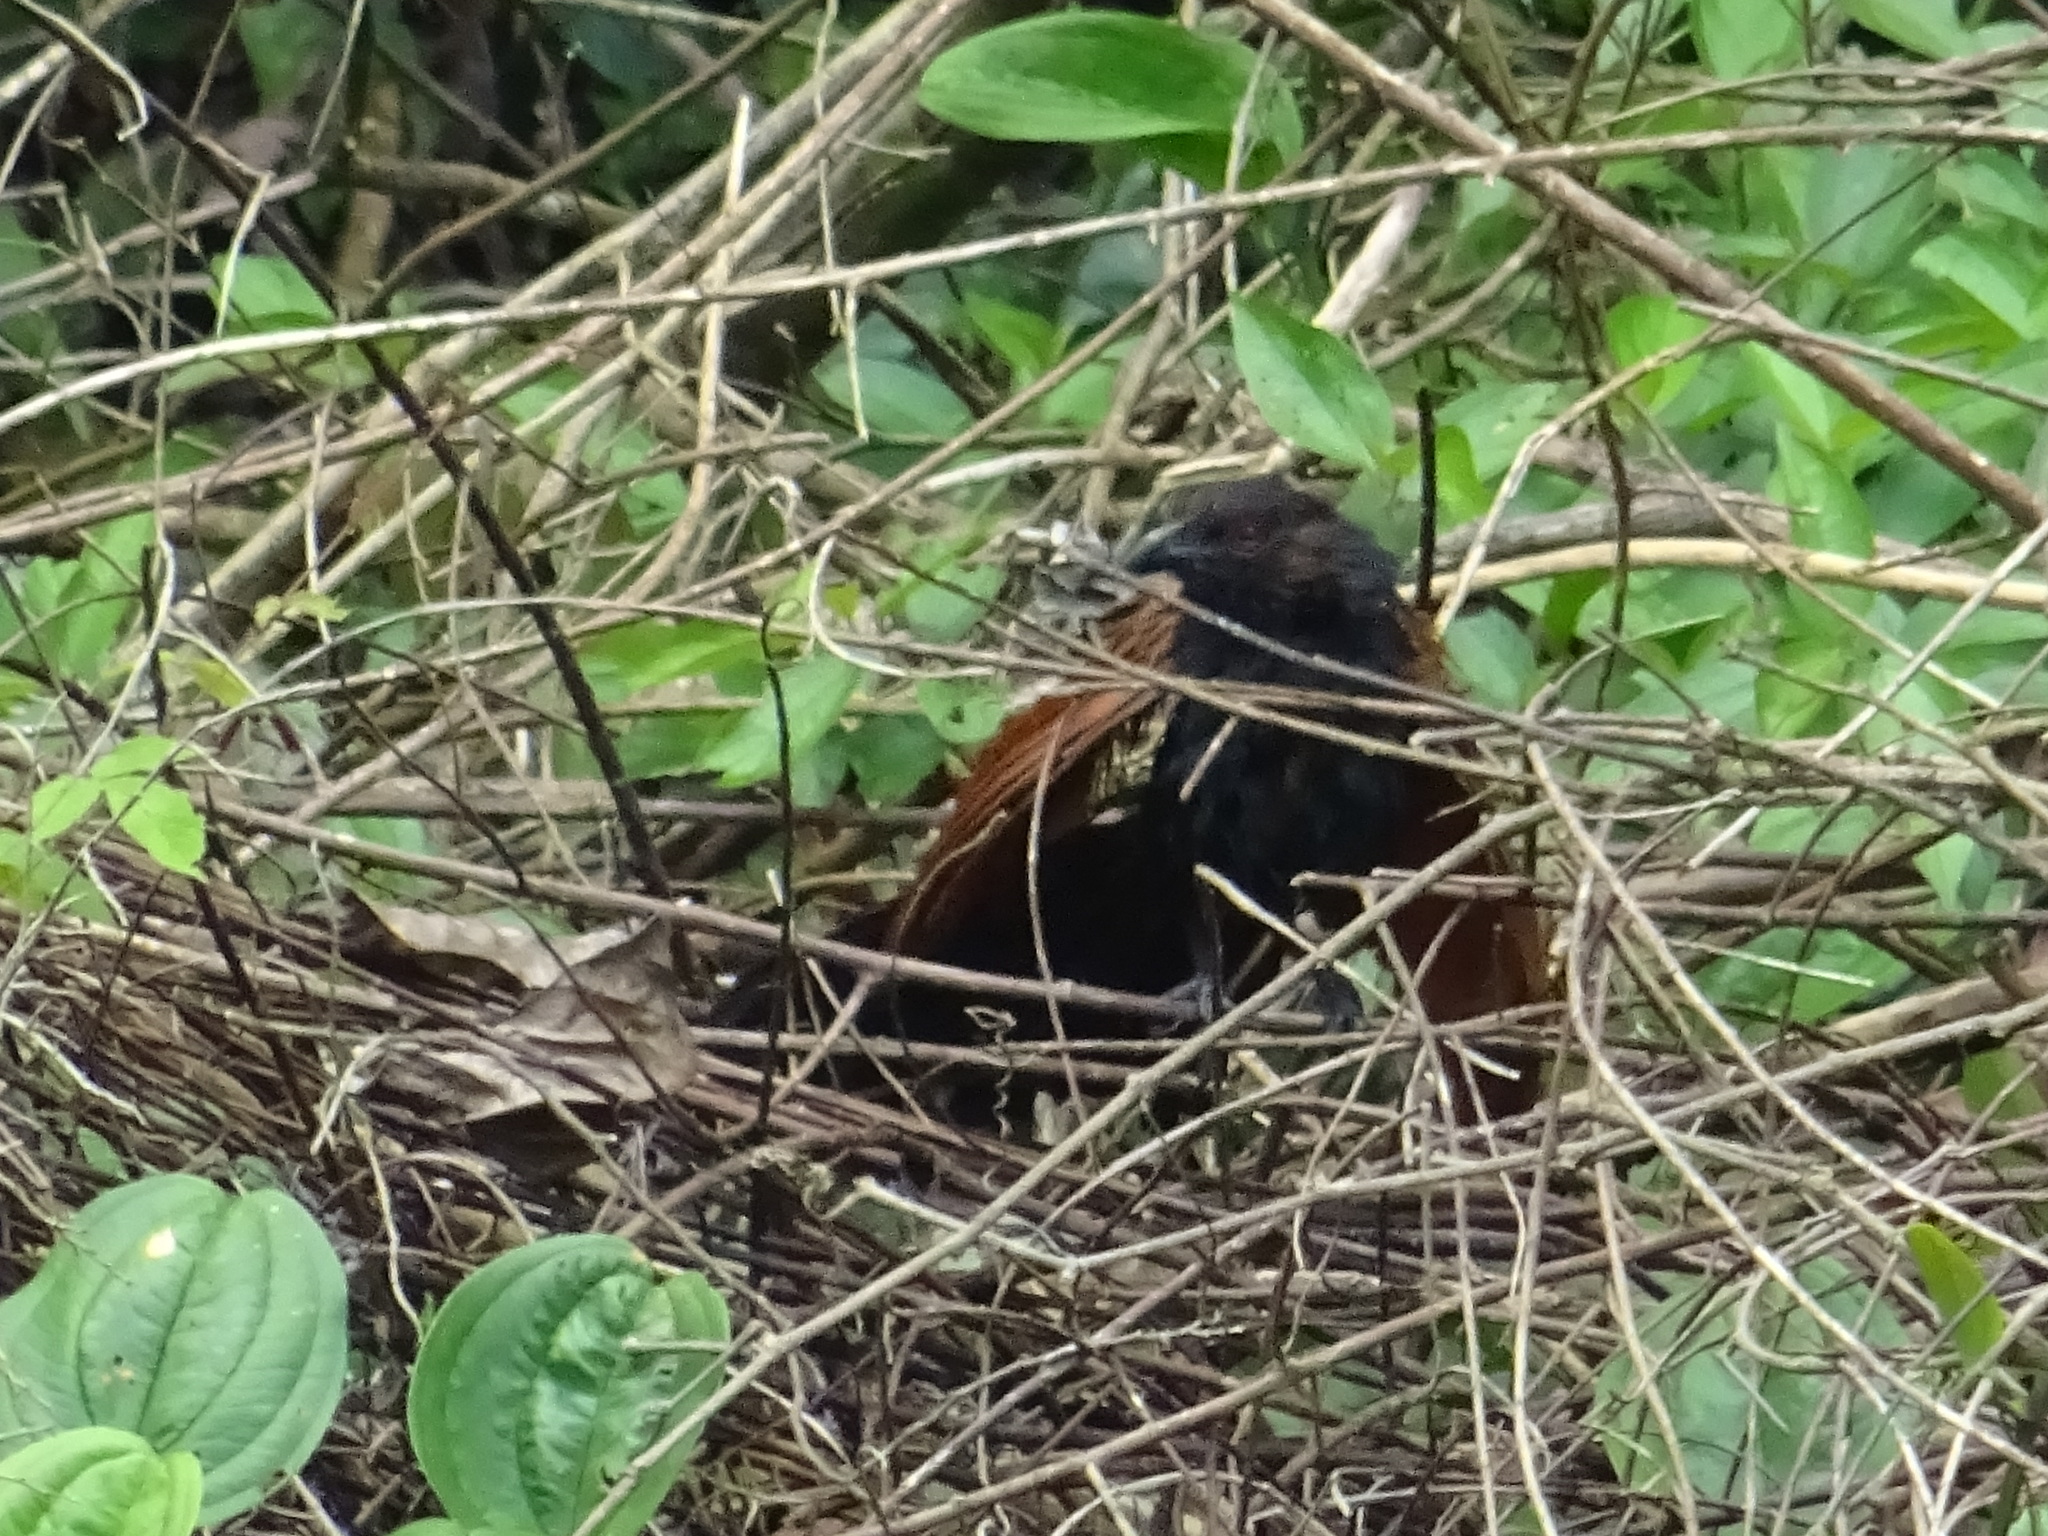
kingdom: Animalia
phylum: Chordata
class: Aves
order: Cuculiformes
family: Cuculidae
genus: Centropus
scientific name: Centropus sinensis
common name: Greater coucal
